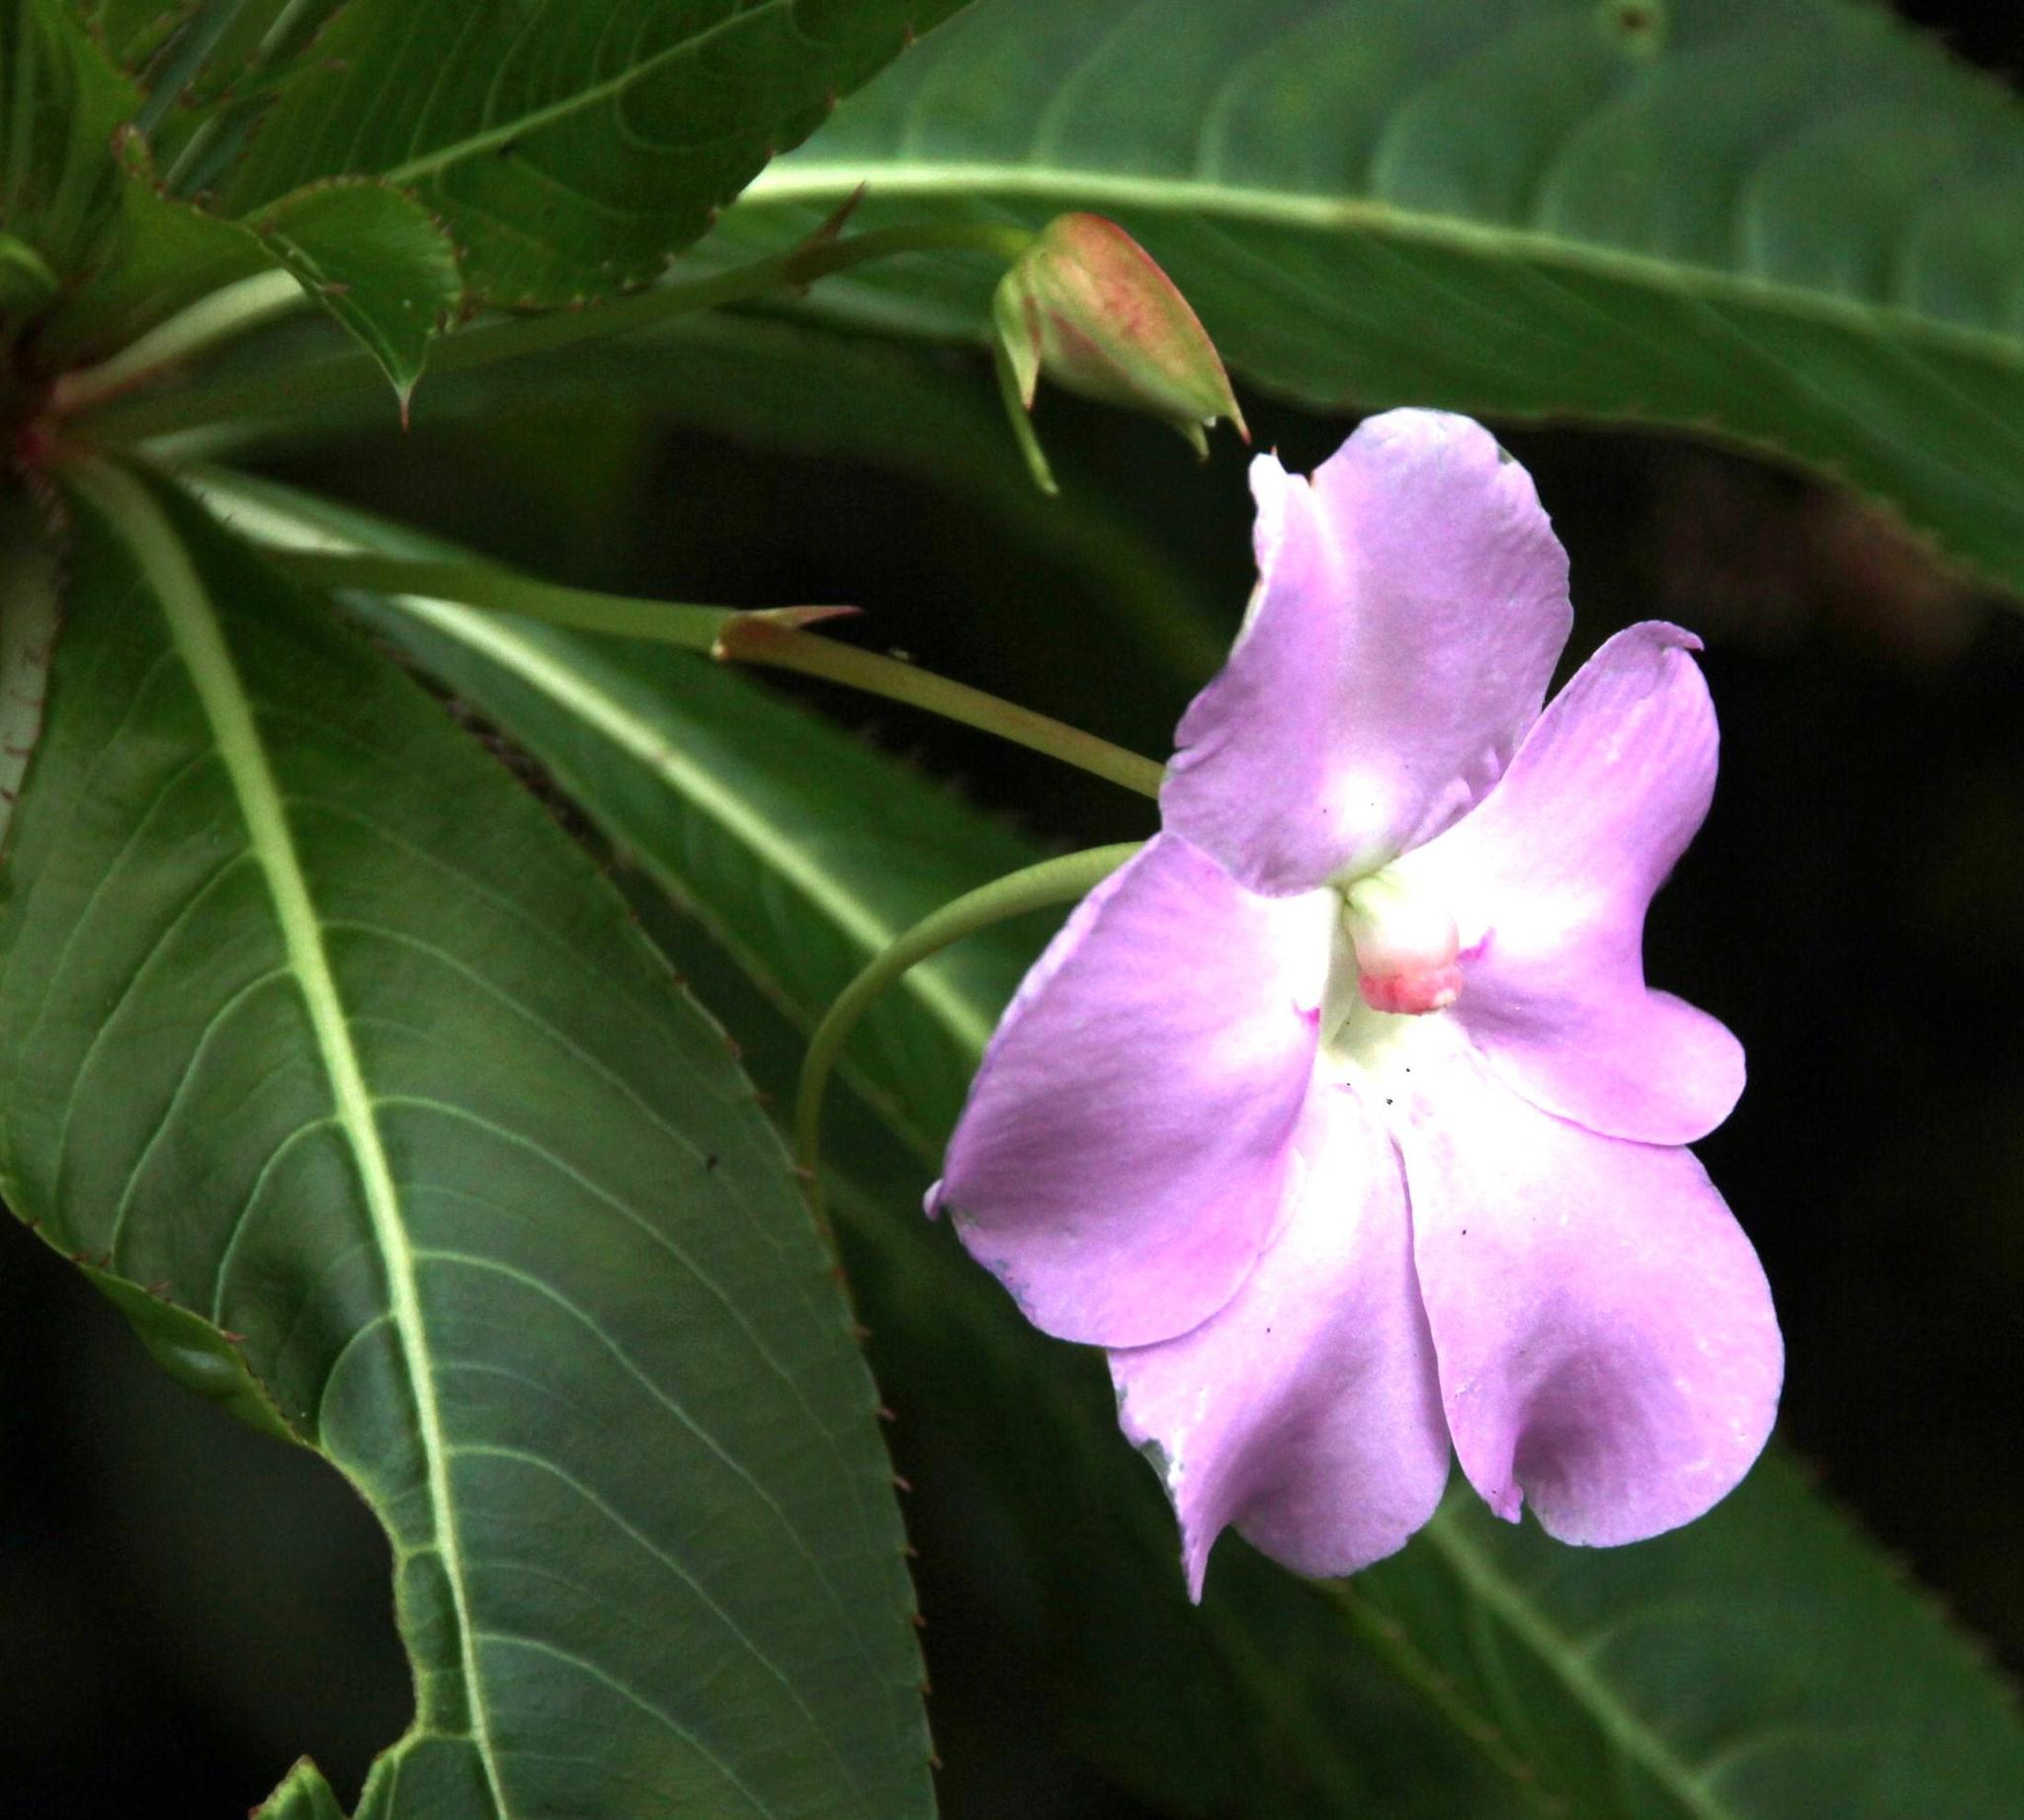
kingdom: Plantae
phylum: Tracheophyta
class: Magnoliopsida
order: Ericales
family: Balsaminaceae
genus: Impatiens
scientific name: Impatiens sodenii
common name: Oliver's touch-me-not
